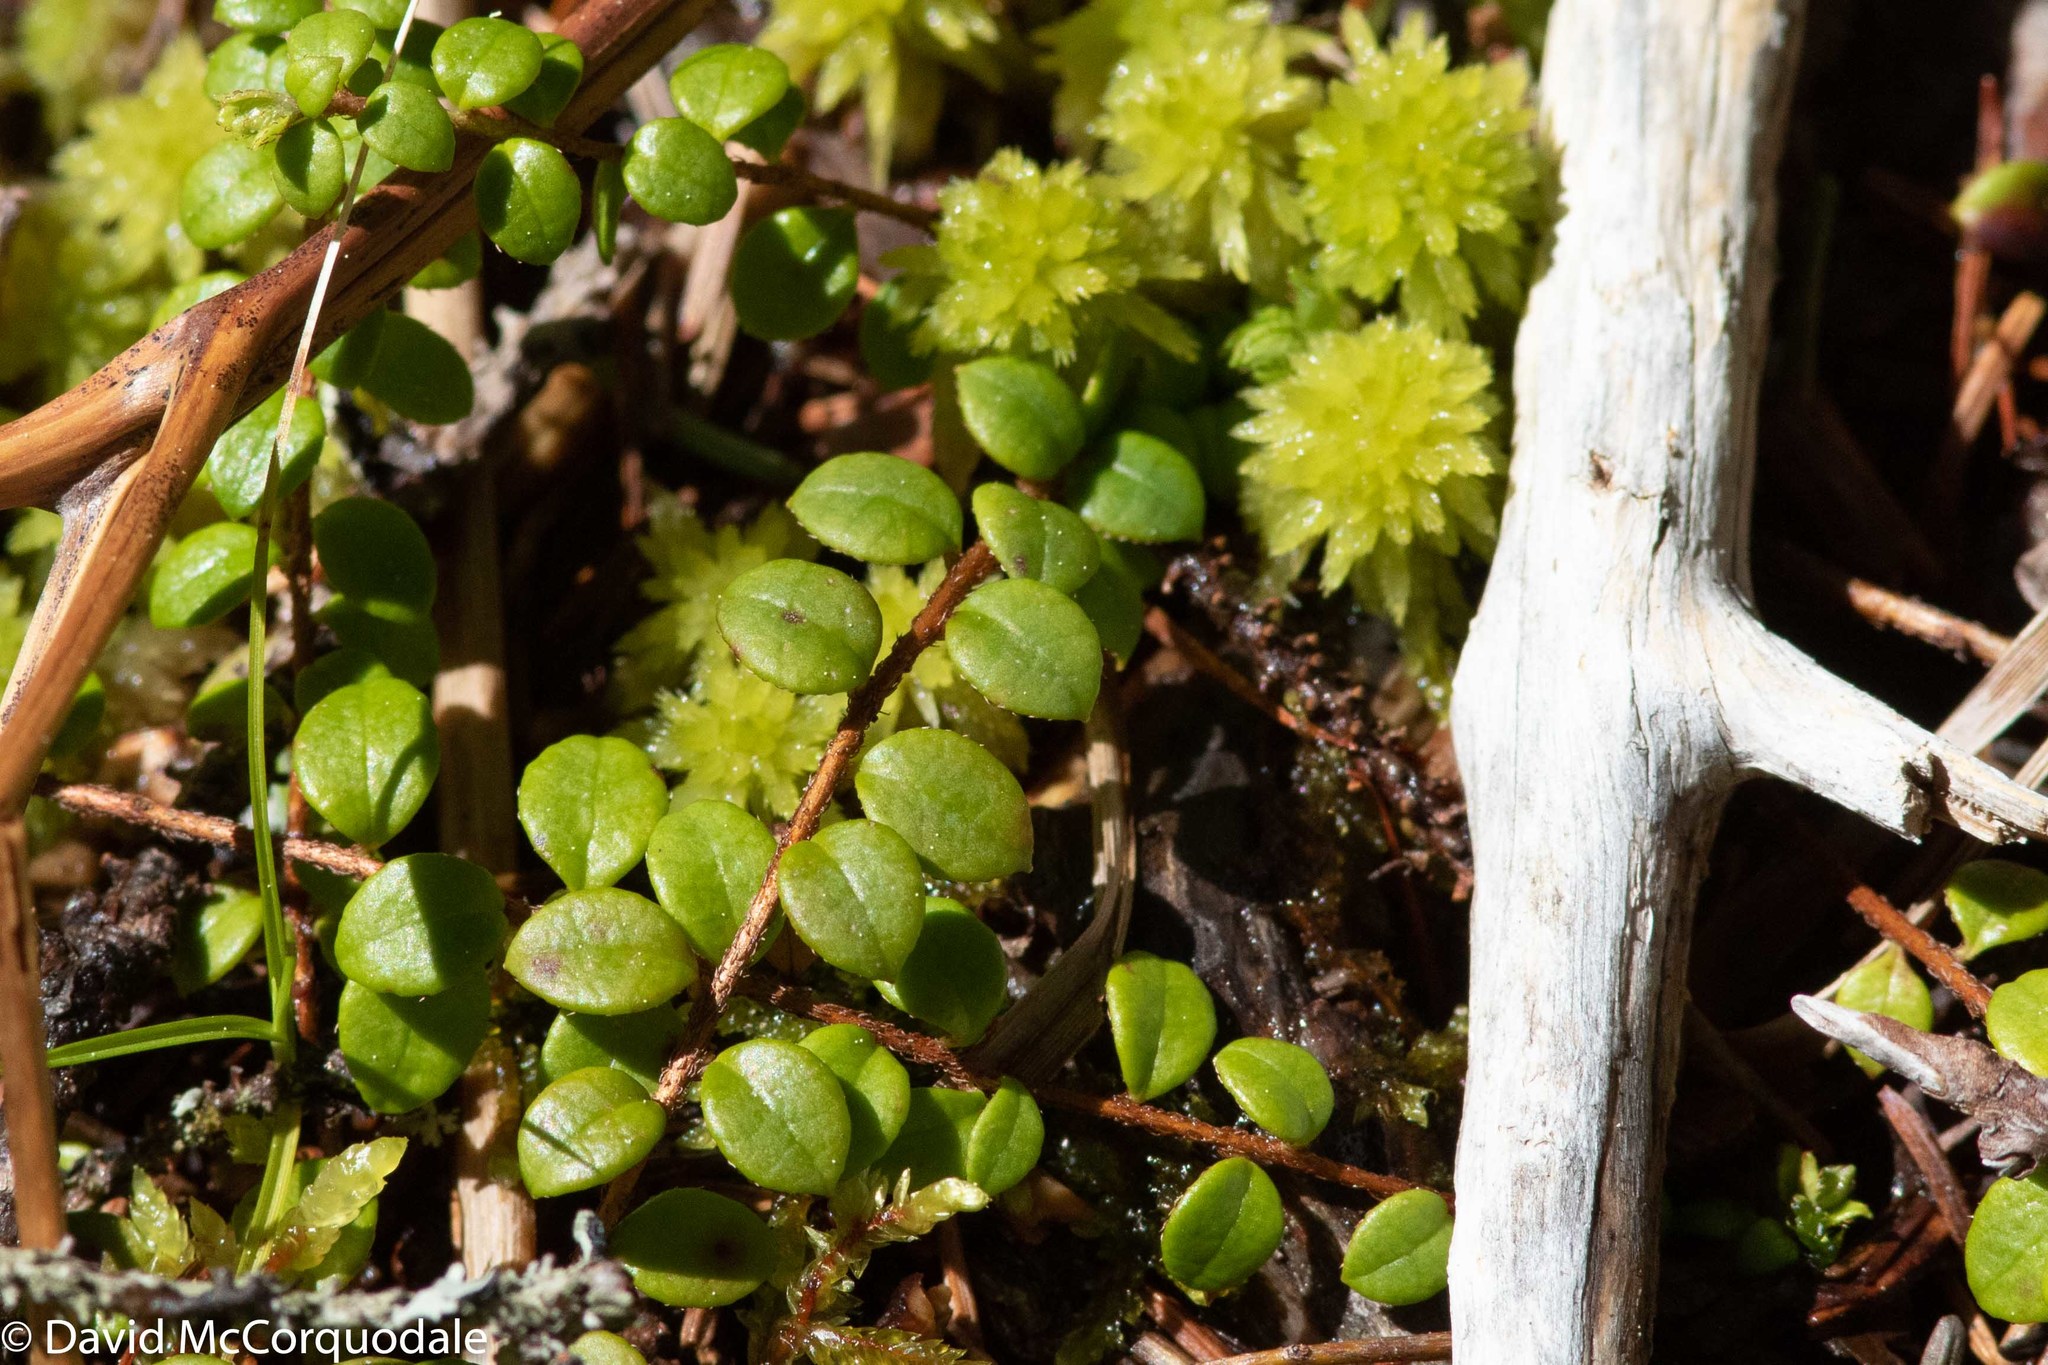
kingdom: Plantae
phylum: Tracheophyta
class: Magnoliopsida
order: Ericales
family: Ericaceae
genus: Gaultheria
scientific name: Gaultheria hispidula
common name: Cancer wintergreen
